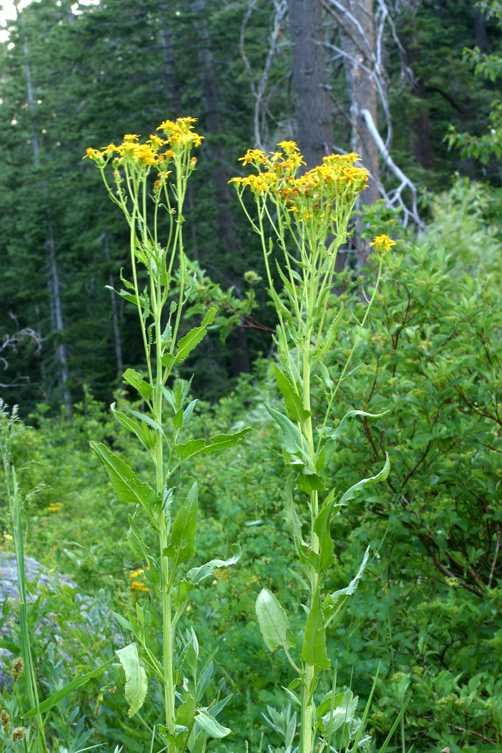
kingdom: Plantae
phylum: Tracheophyta
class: Magnoliopsida
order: Asterales
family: Asteraceae
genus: Senecio
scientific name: Senecio triangularis
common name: Arrowleaf butterweed
